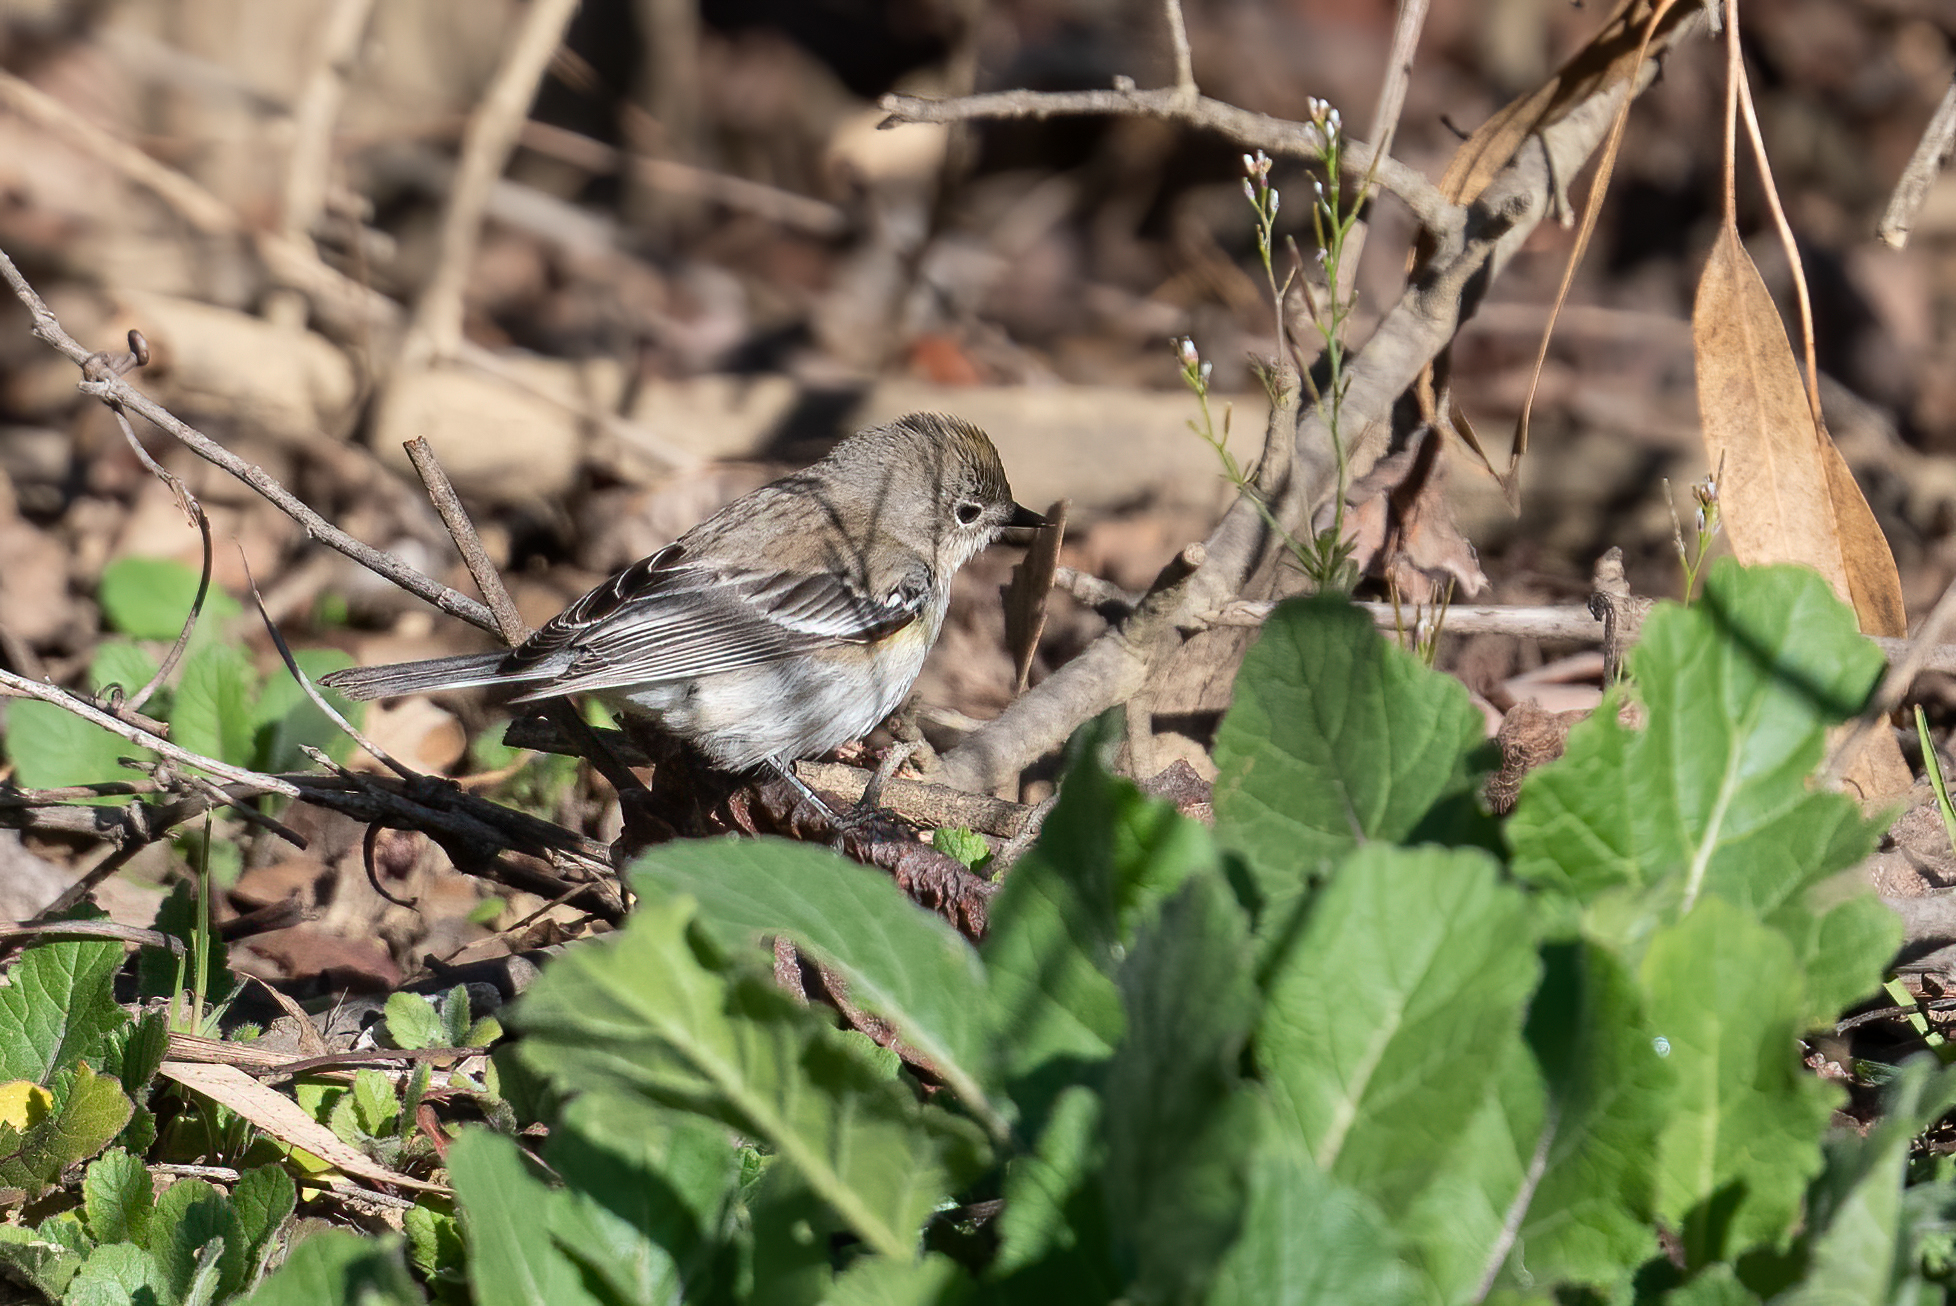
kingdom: Animalia
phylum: Chordata
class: Aves
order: Passeriformes
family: Parulidae
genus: Setophaga
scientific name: Setophaga coronata
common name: Myrtle warbler
